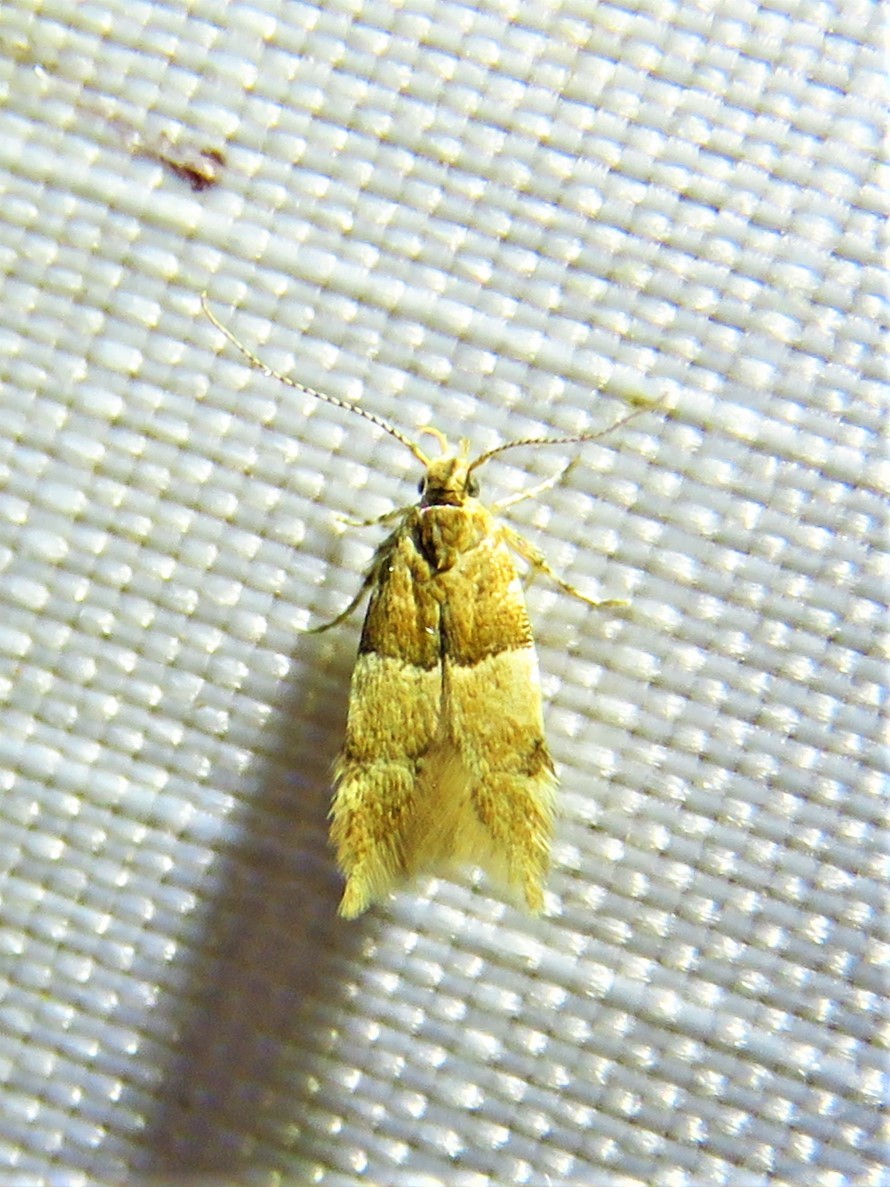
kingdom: Animalia
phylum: Arthropoda
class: Insecta
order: Lepidoptera
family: Gelechiidae
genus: Theisoa
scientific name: Theisoa constrictella
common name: Constricted twirler
